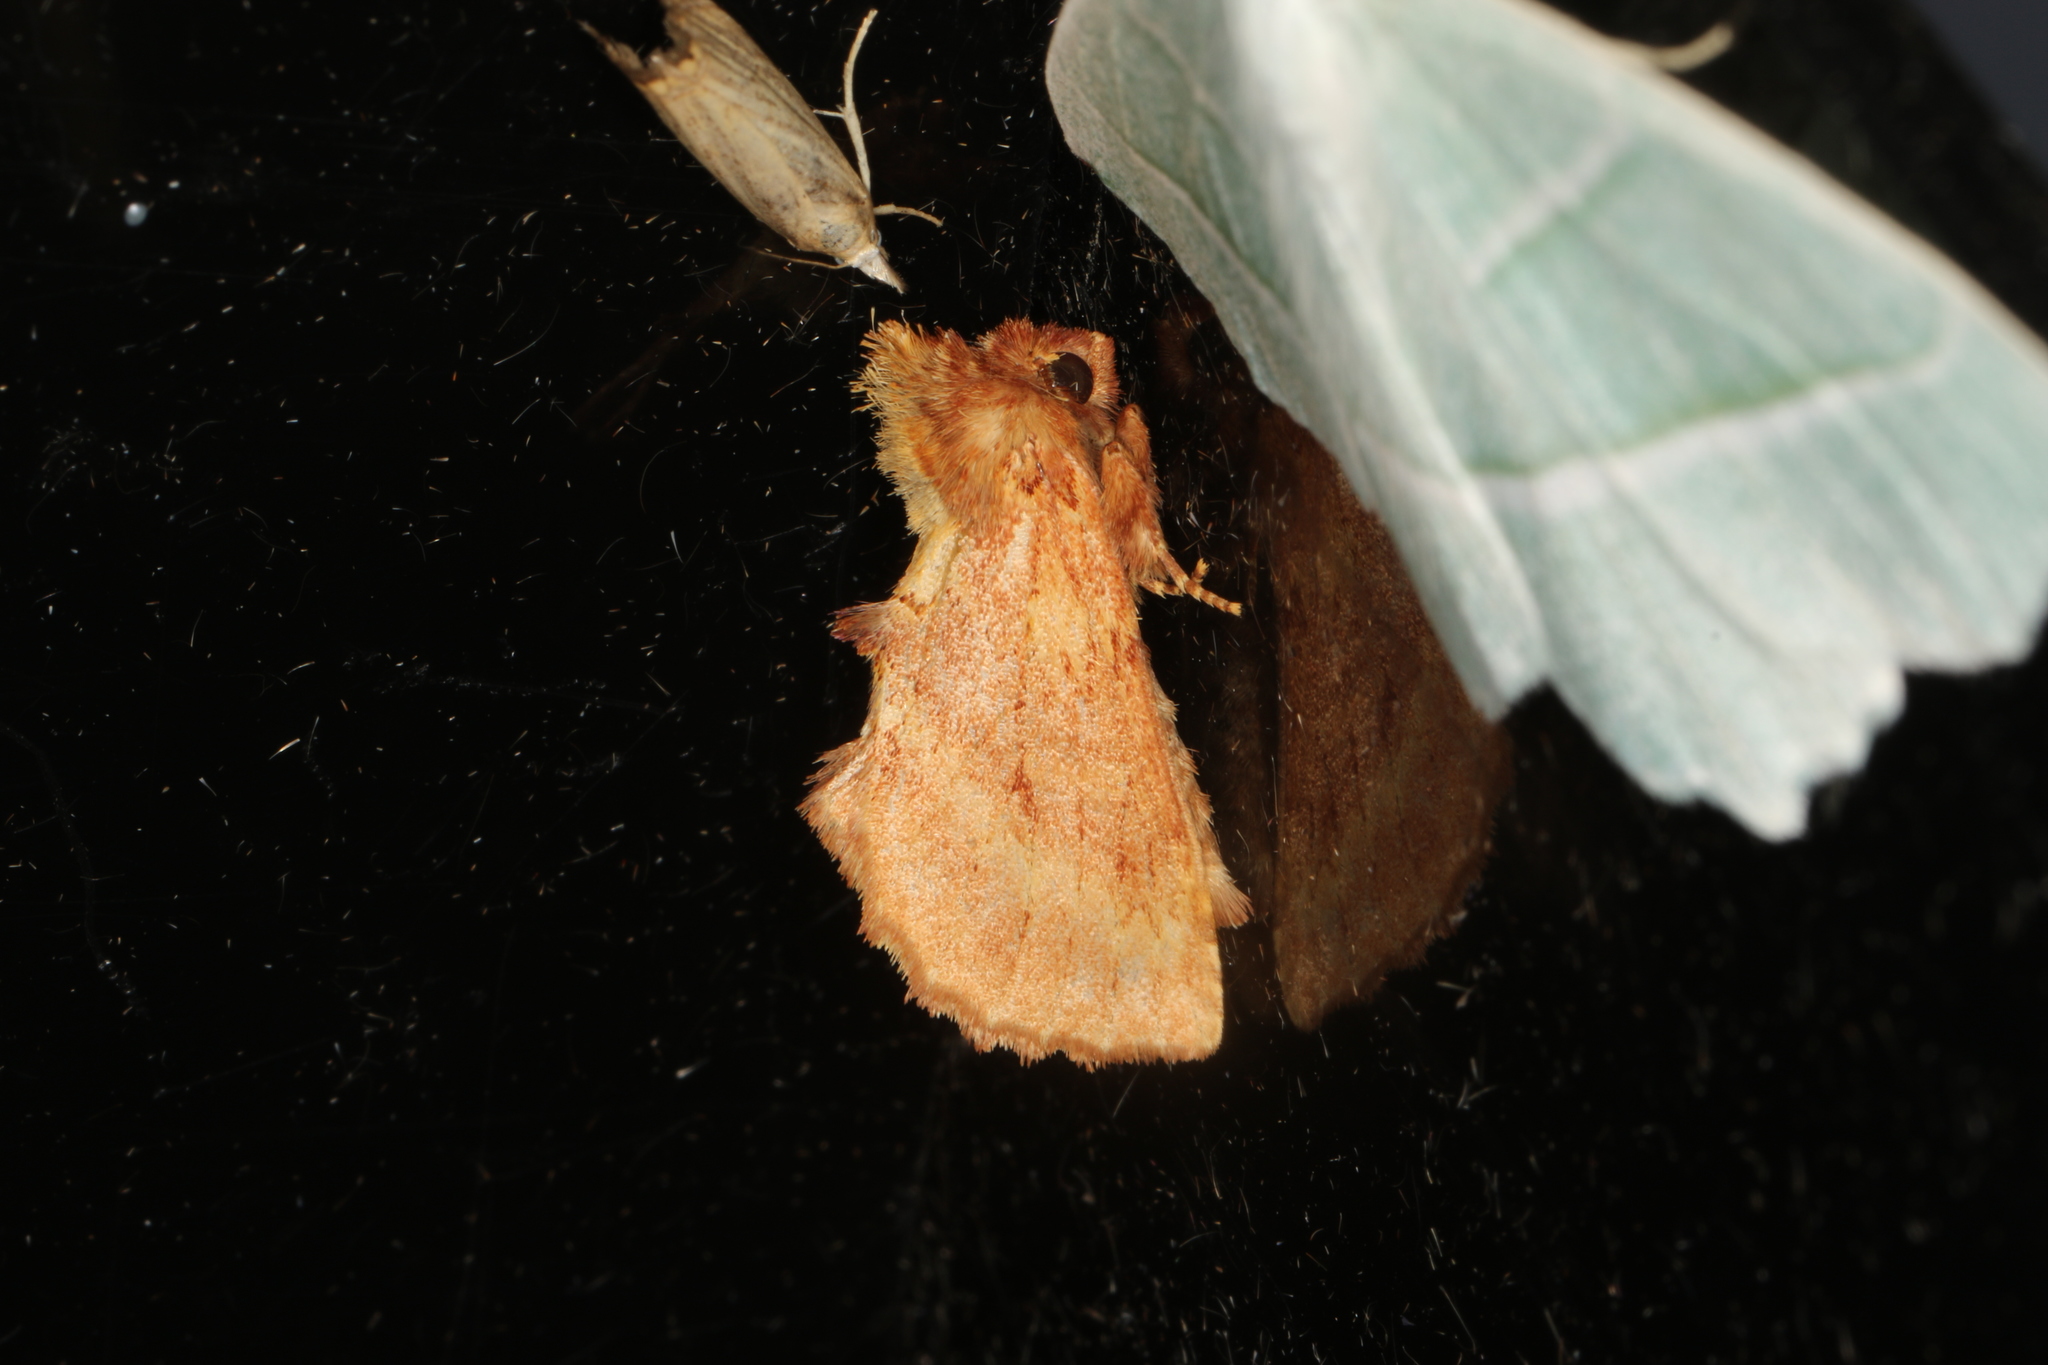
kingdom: Animalia
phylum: Arthropoda
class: Insecta
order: Lepidoptera
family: Notodontidae
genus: Ptilodon
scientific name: Ptilodon capucina
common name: Coxcomb prominent
